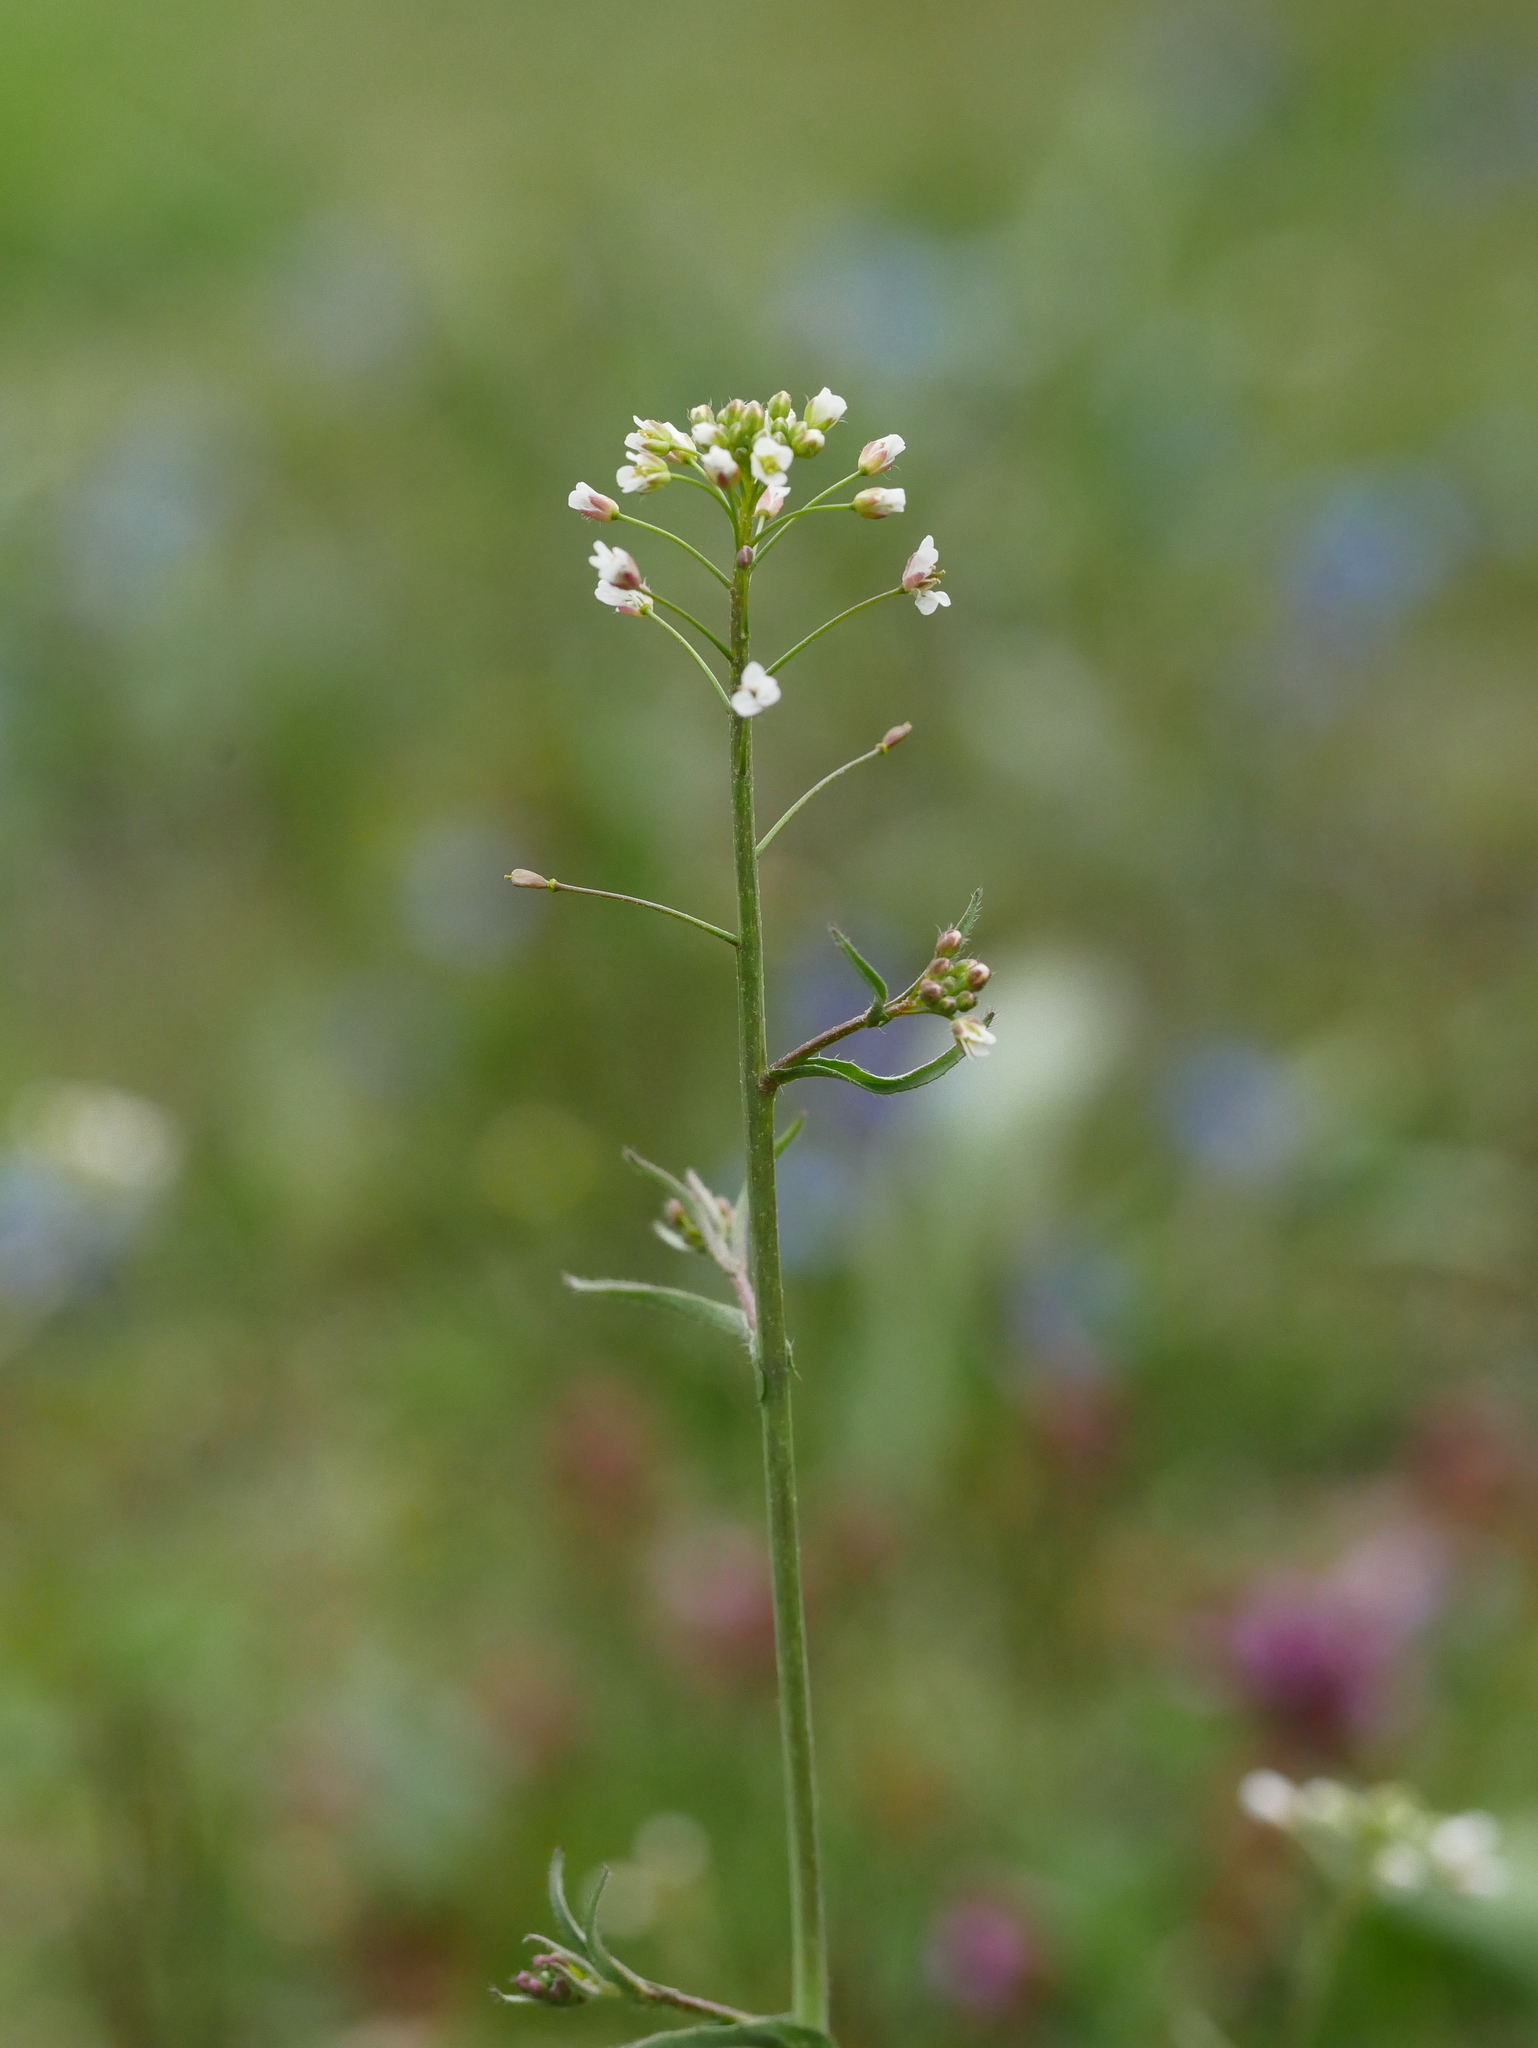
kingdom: Plantae
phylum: Tracheophyta
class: Magnoliopsida
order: Brassicales
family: Brassicaceae
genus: Capsella
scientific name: Capsella bursa-pastoris
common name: Shepherd's purse
